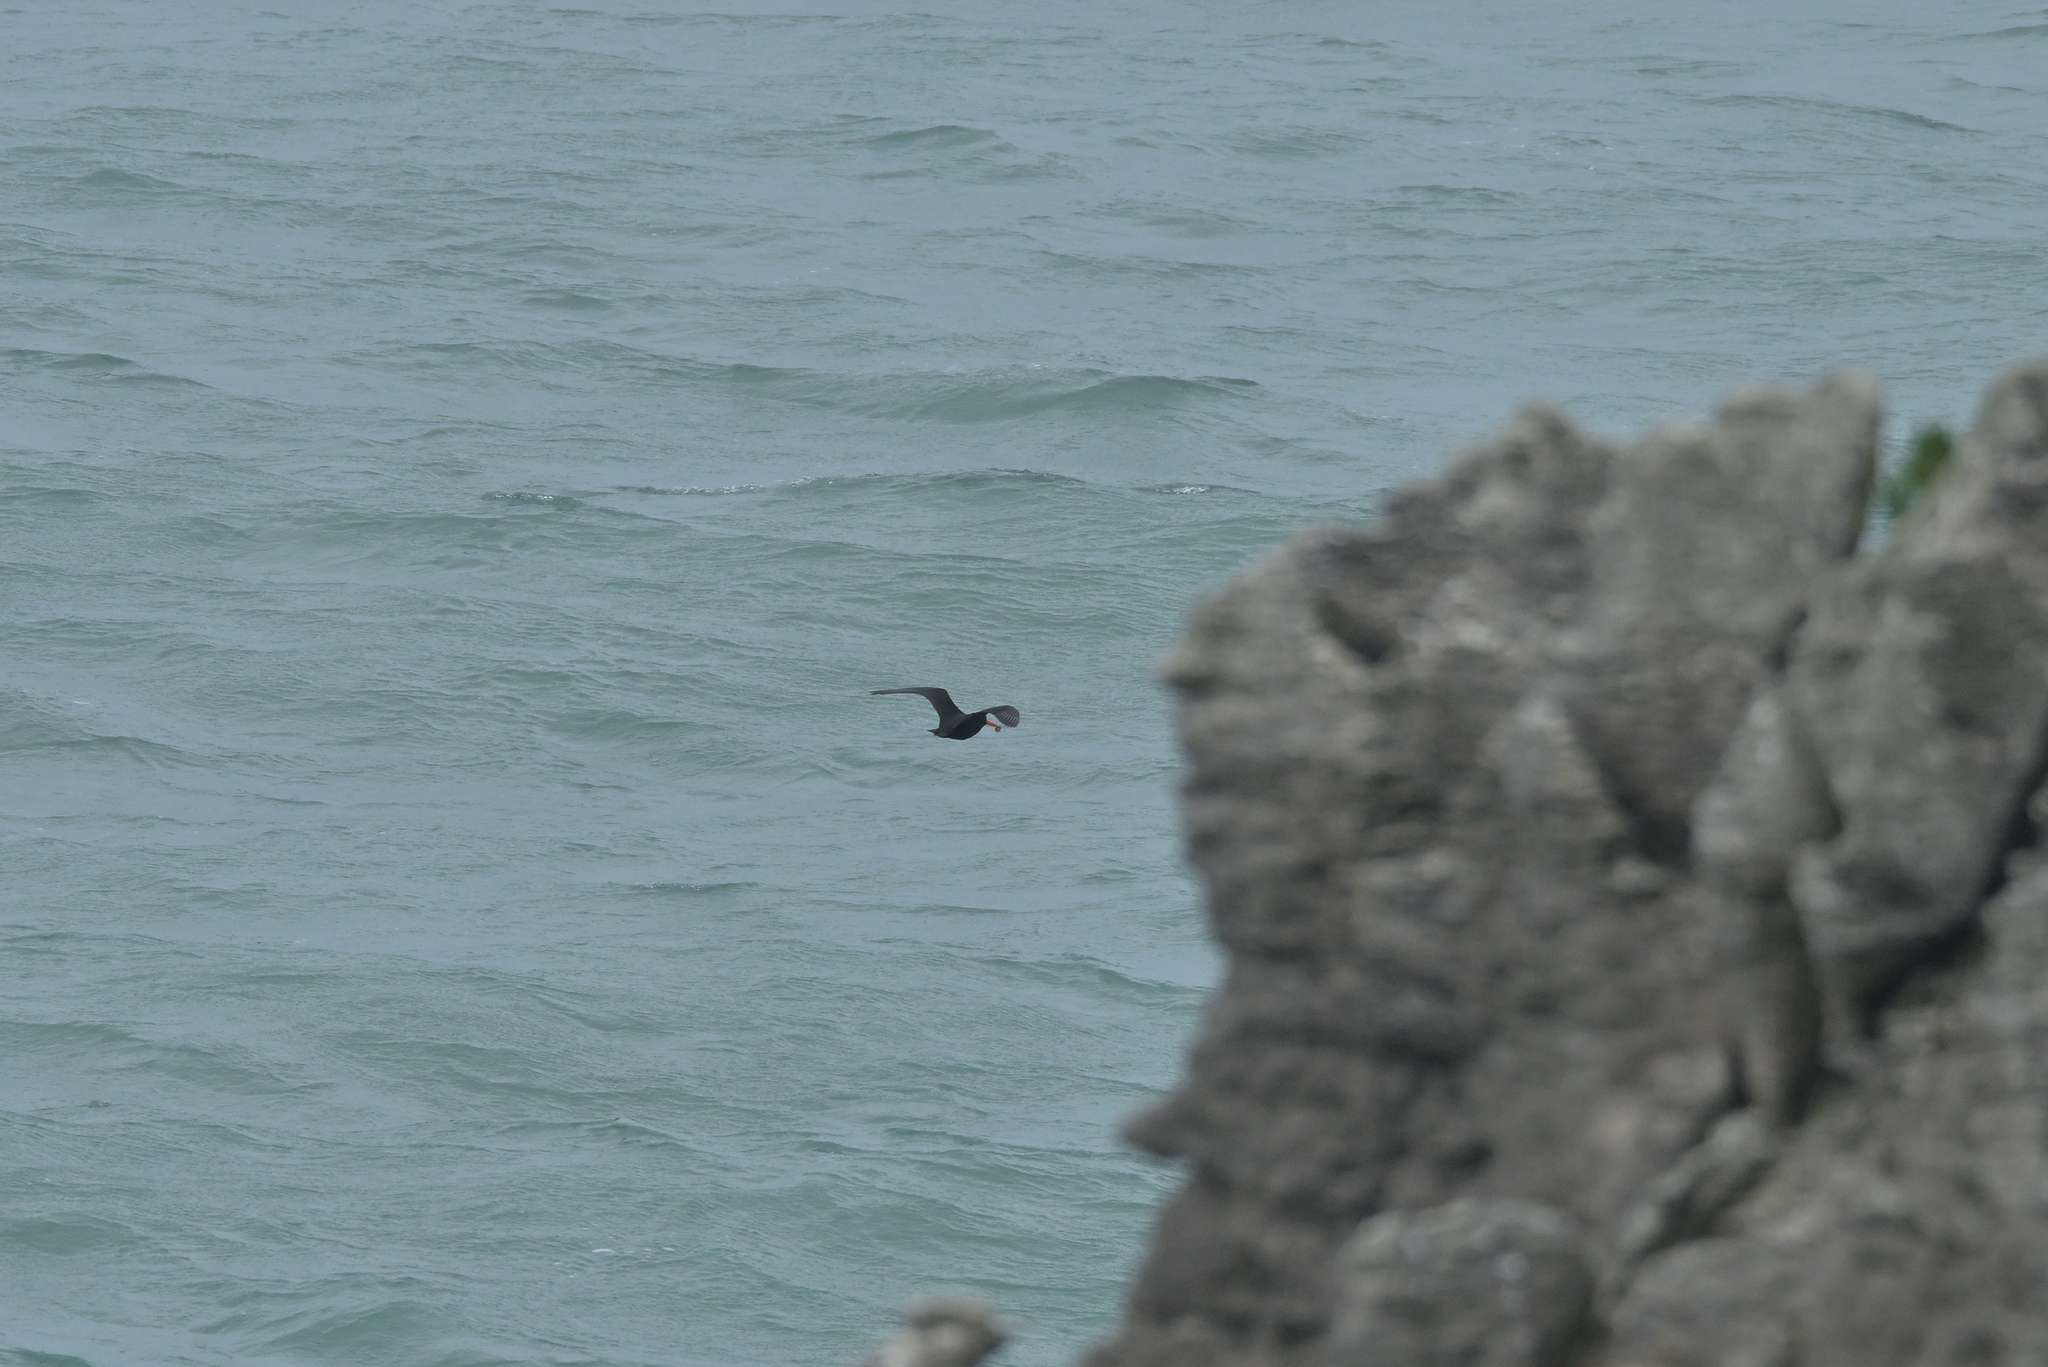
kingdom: Animalia
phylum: Chordata
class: Aves
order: Charadriiformes
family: Haematopodidae
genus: Haematopus
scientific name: Haematopus unicolor
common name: Variable oystercatcher
